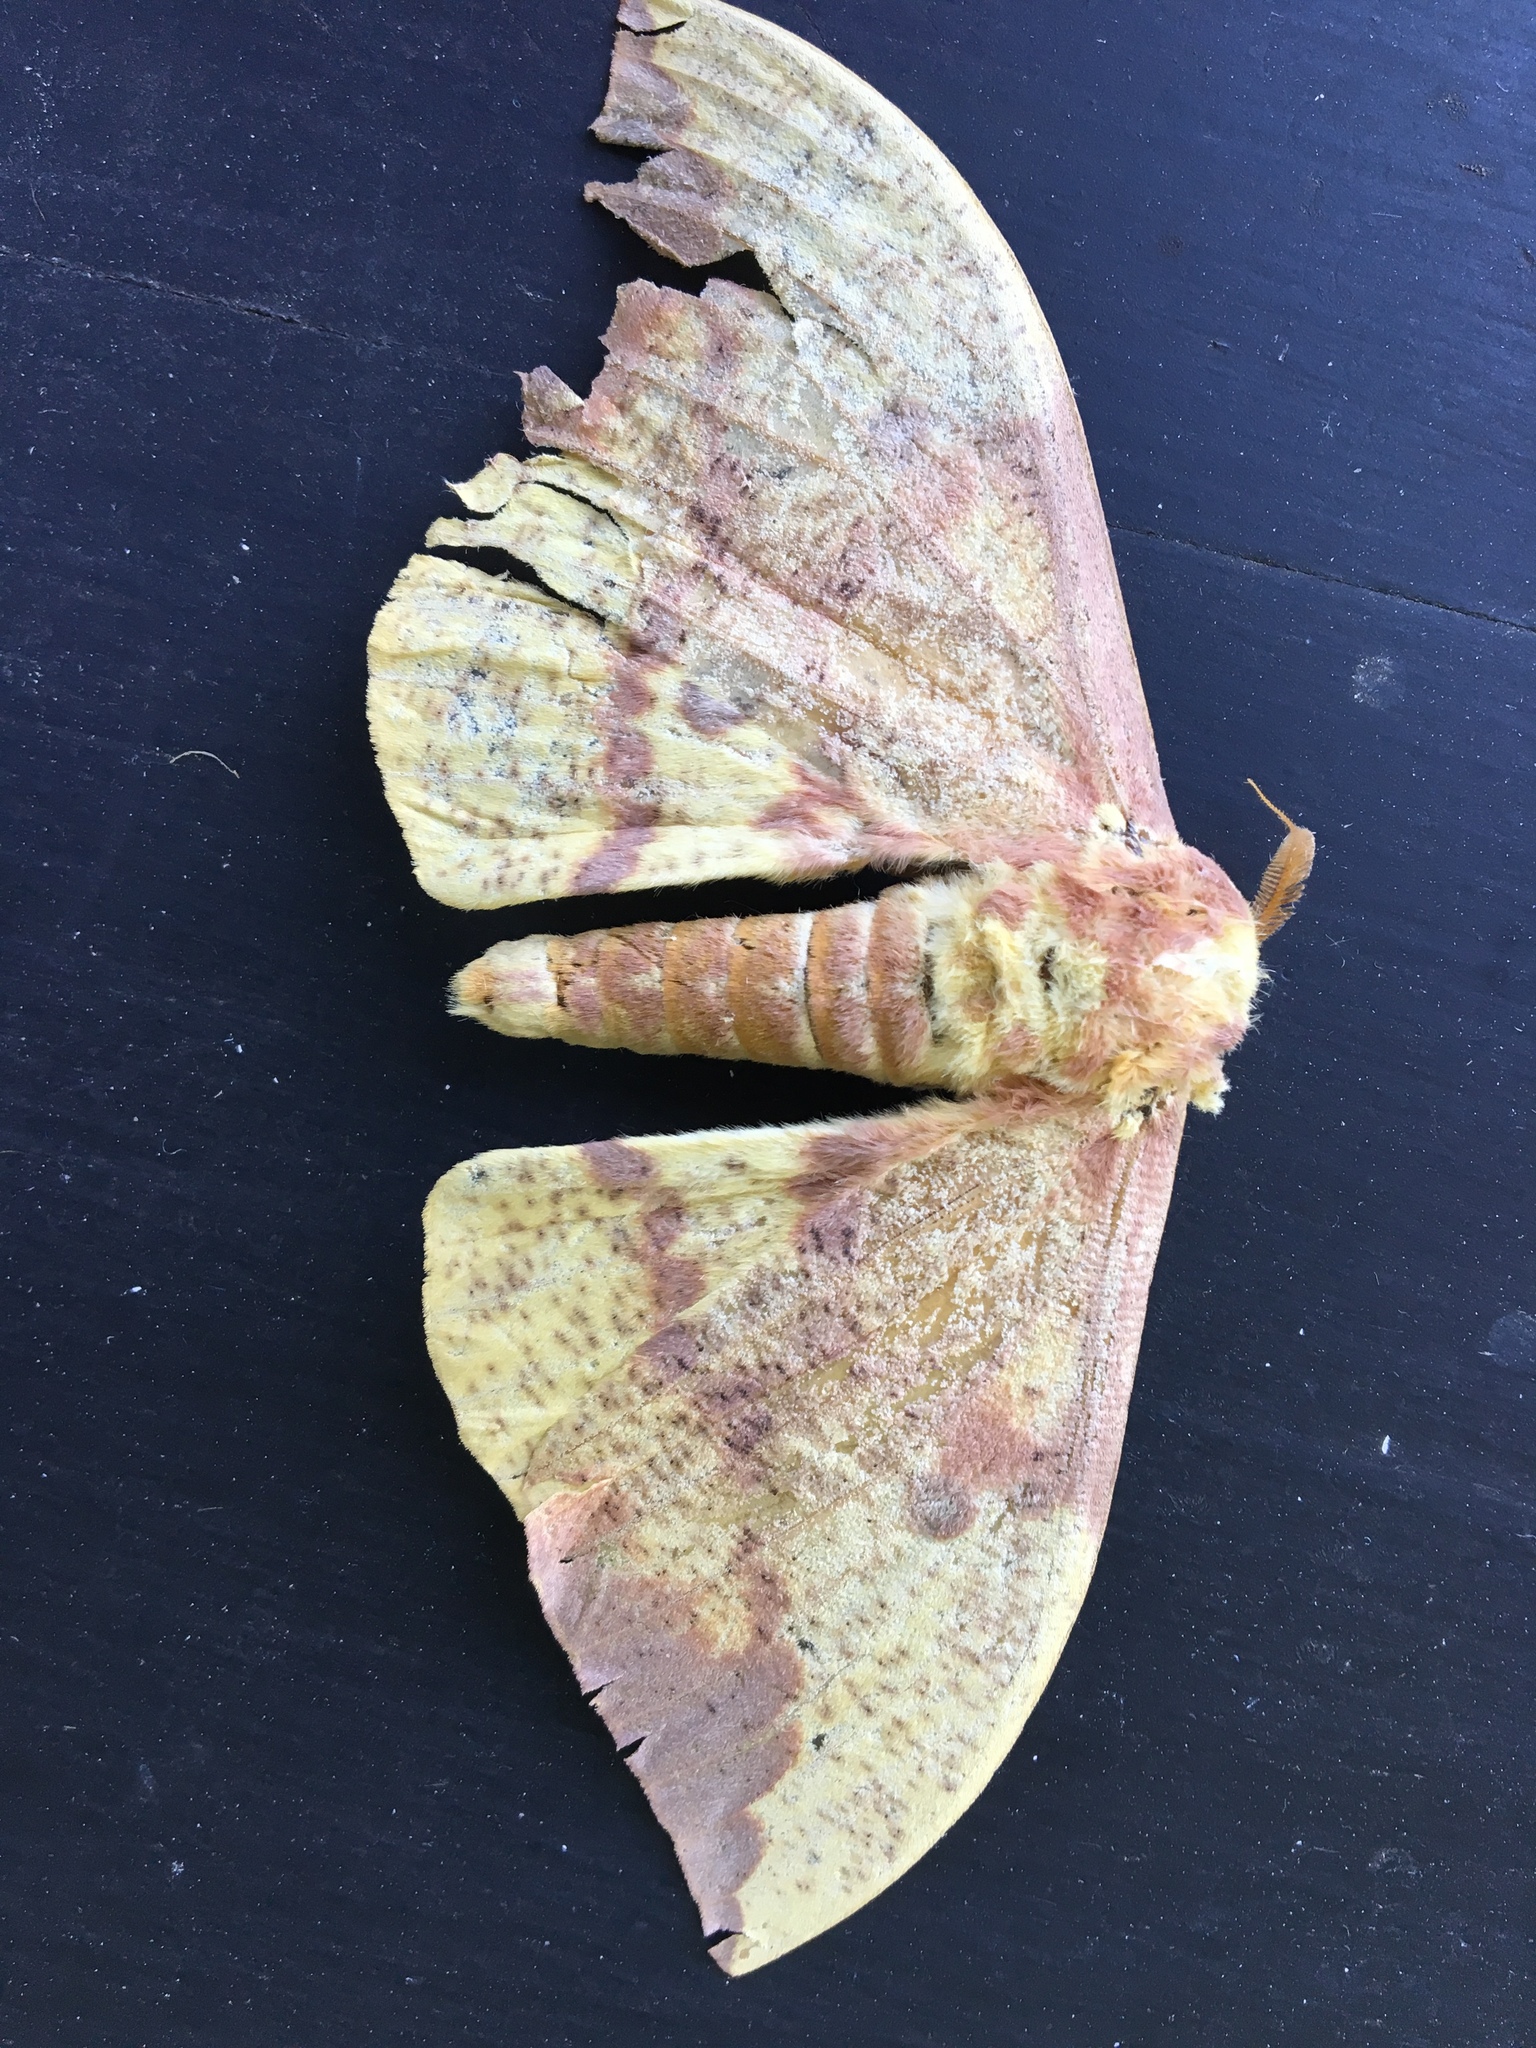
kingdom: Animalia
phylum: Arthropoda
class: Insecta
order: Lepidoptera
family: Saturniidae
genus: Eacles
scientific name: Eacles imperialis
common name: Imperial moth
